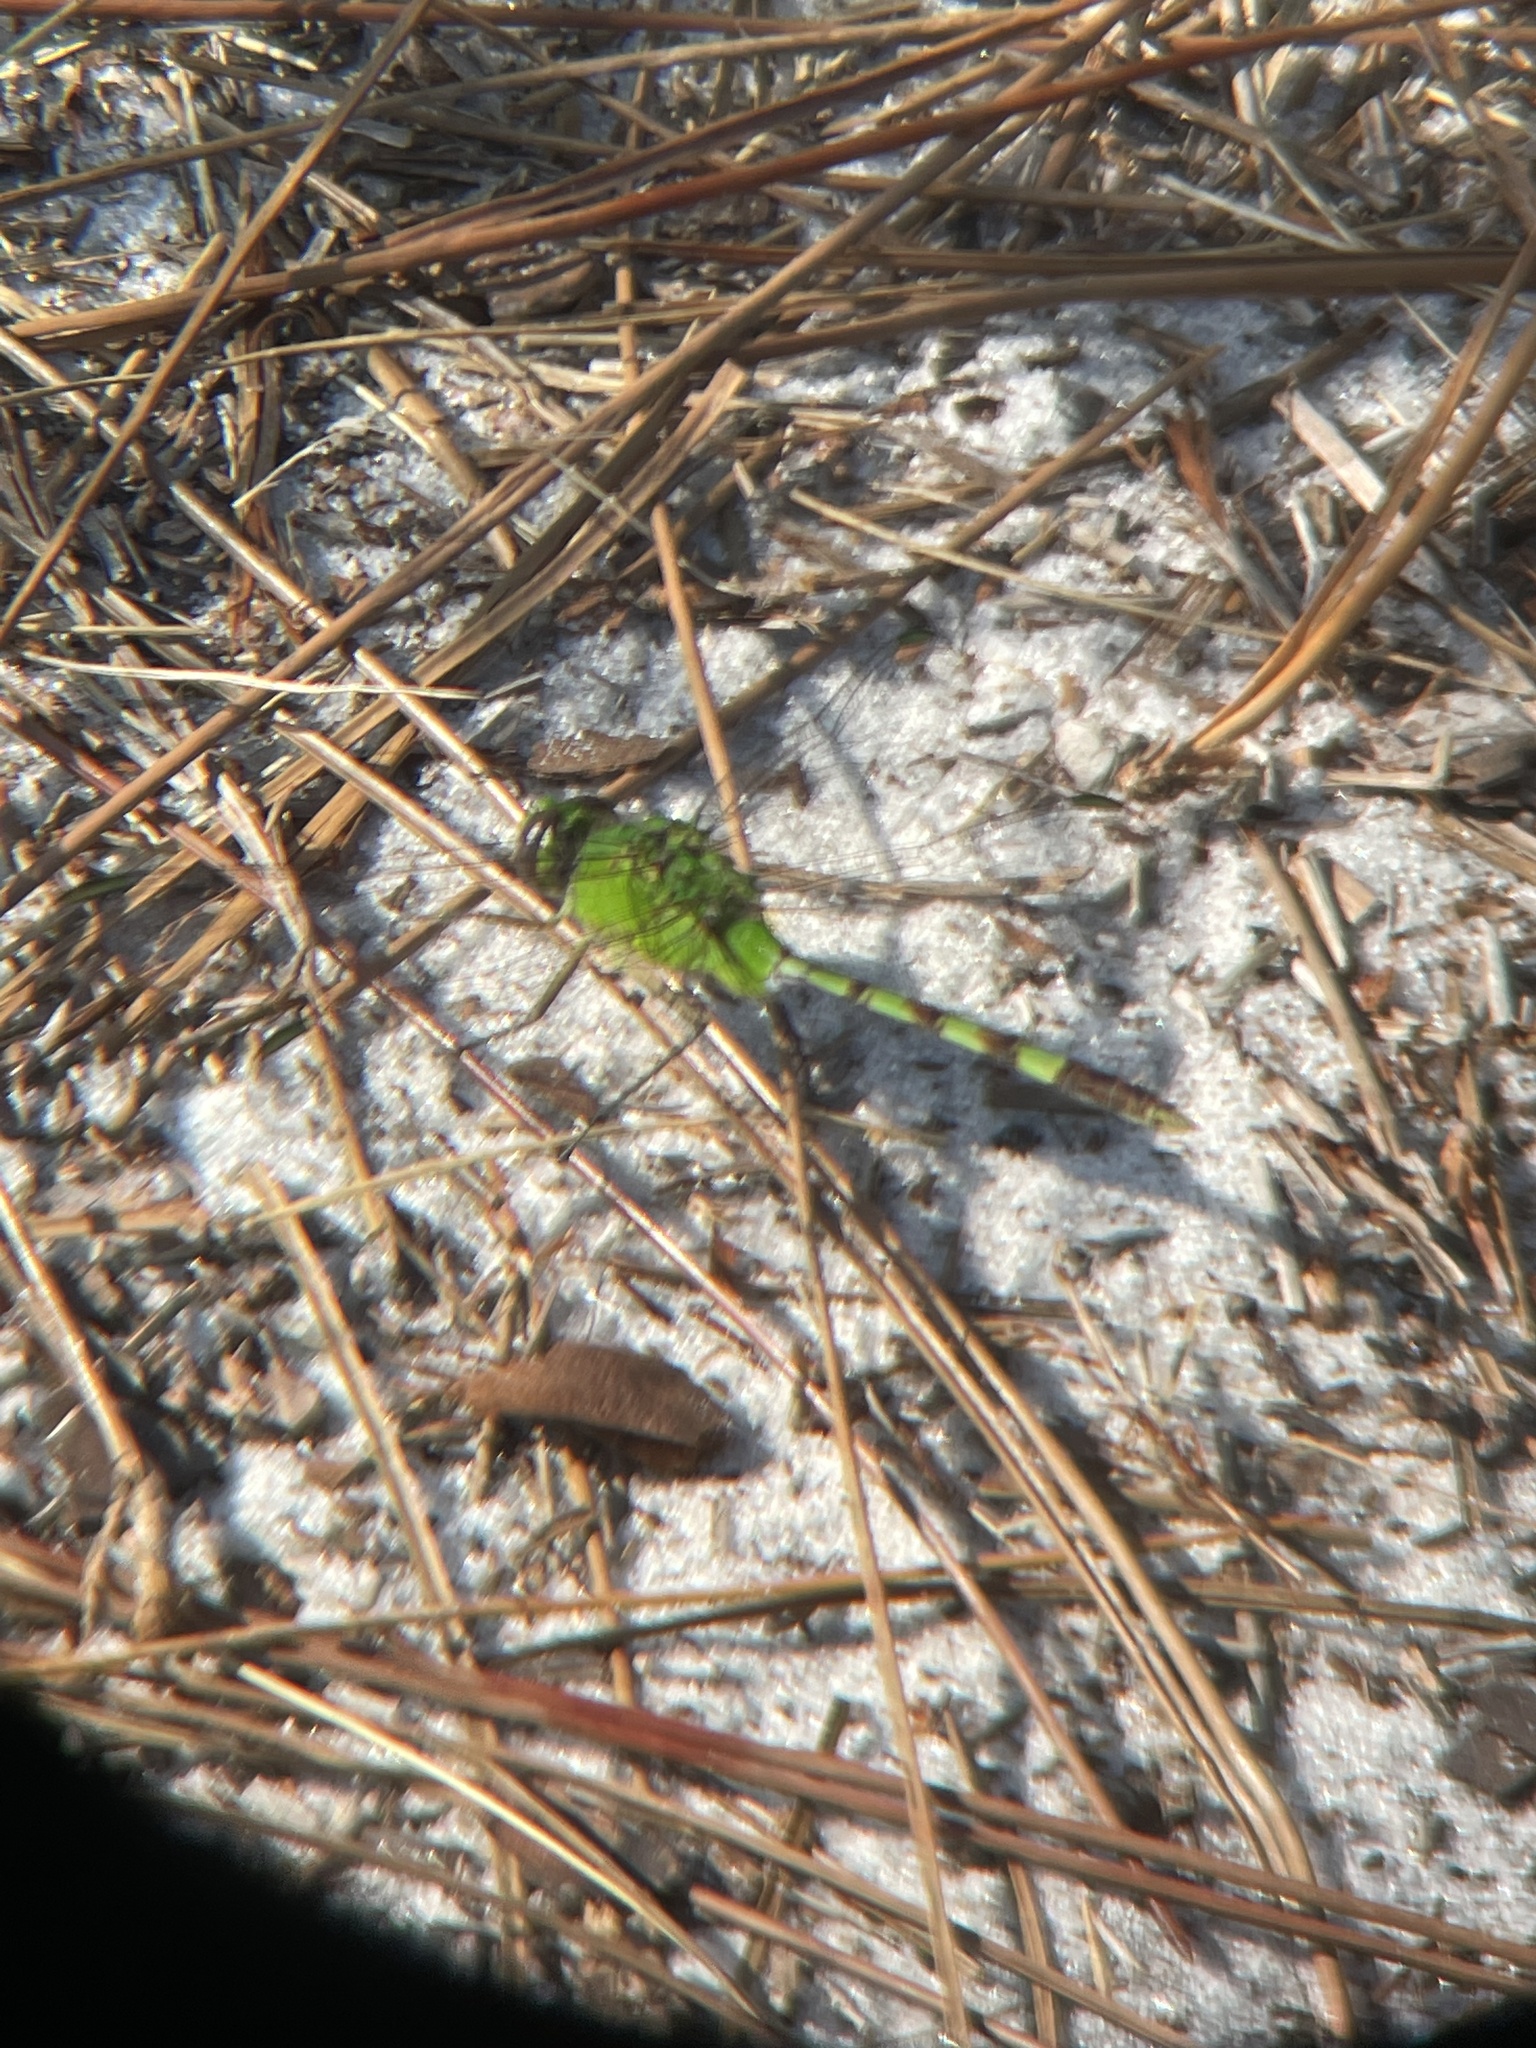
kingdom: Animalia
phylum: Arthropoda
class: Insecta
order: Odonata
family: Libellulidae
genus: Erythemis
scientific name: Erythemis vesiculosa
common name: Great pondhawk
